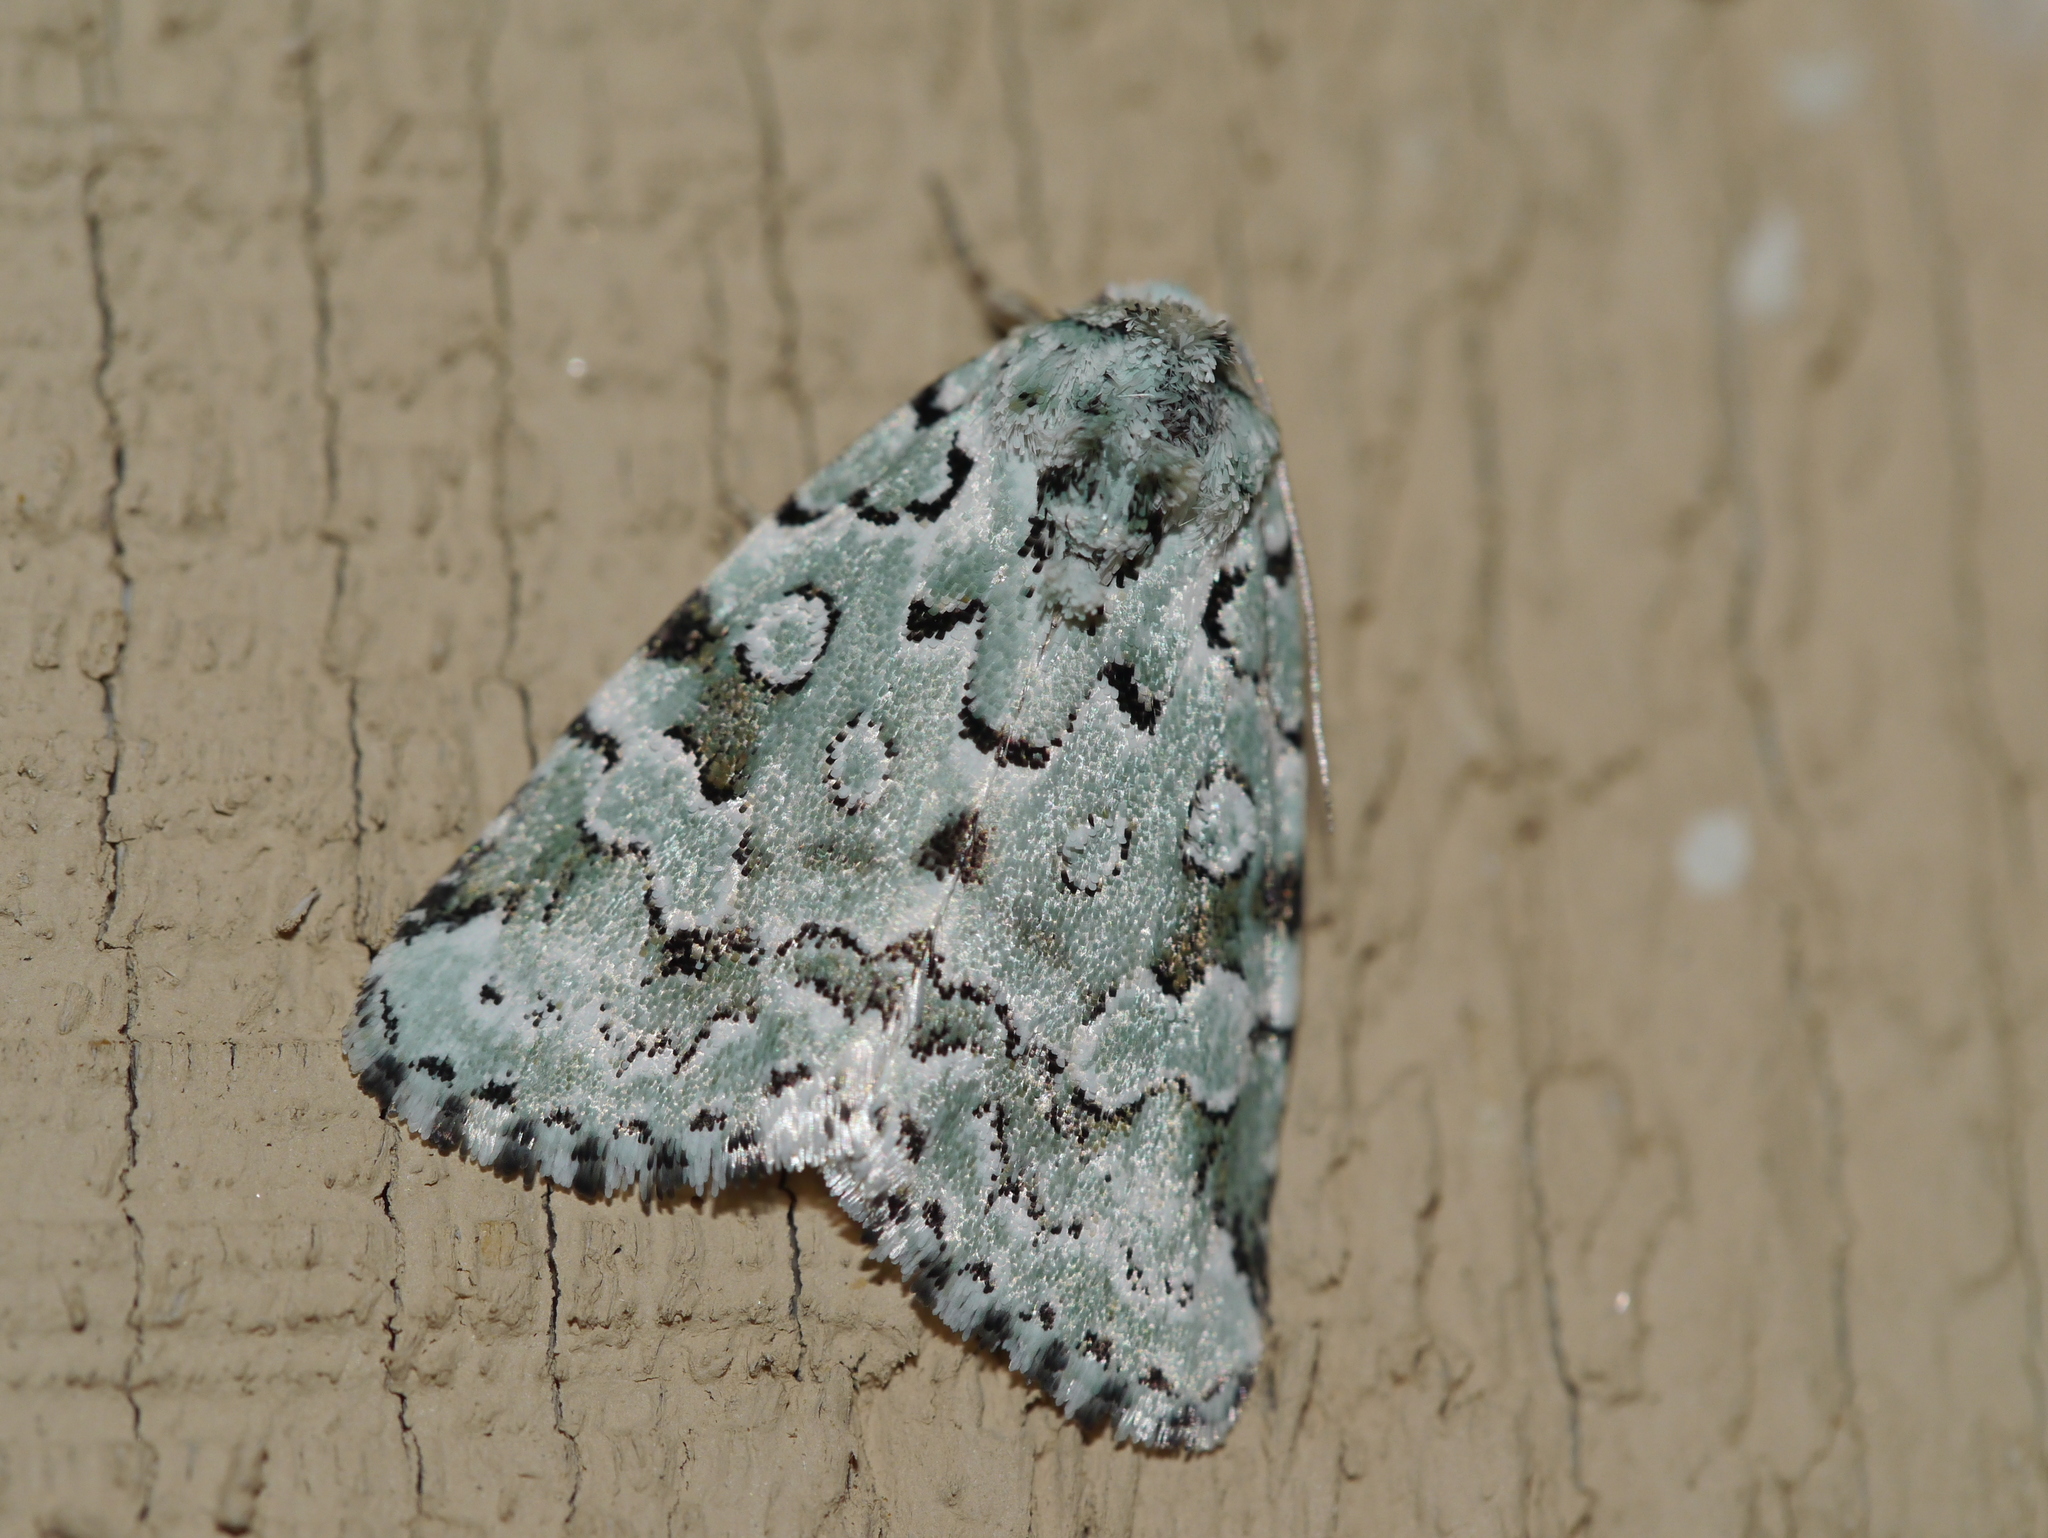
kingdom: Animalia
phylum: Arthropoda
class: Insecta
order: Lepidoptera
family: Noctuidae
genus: Bryolymnia
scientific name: Bryolymnia viridata
